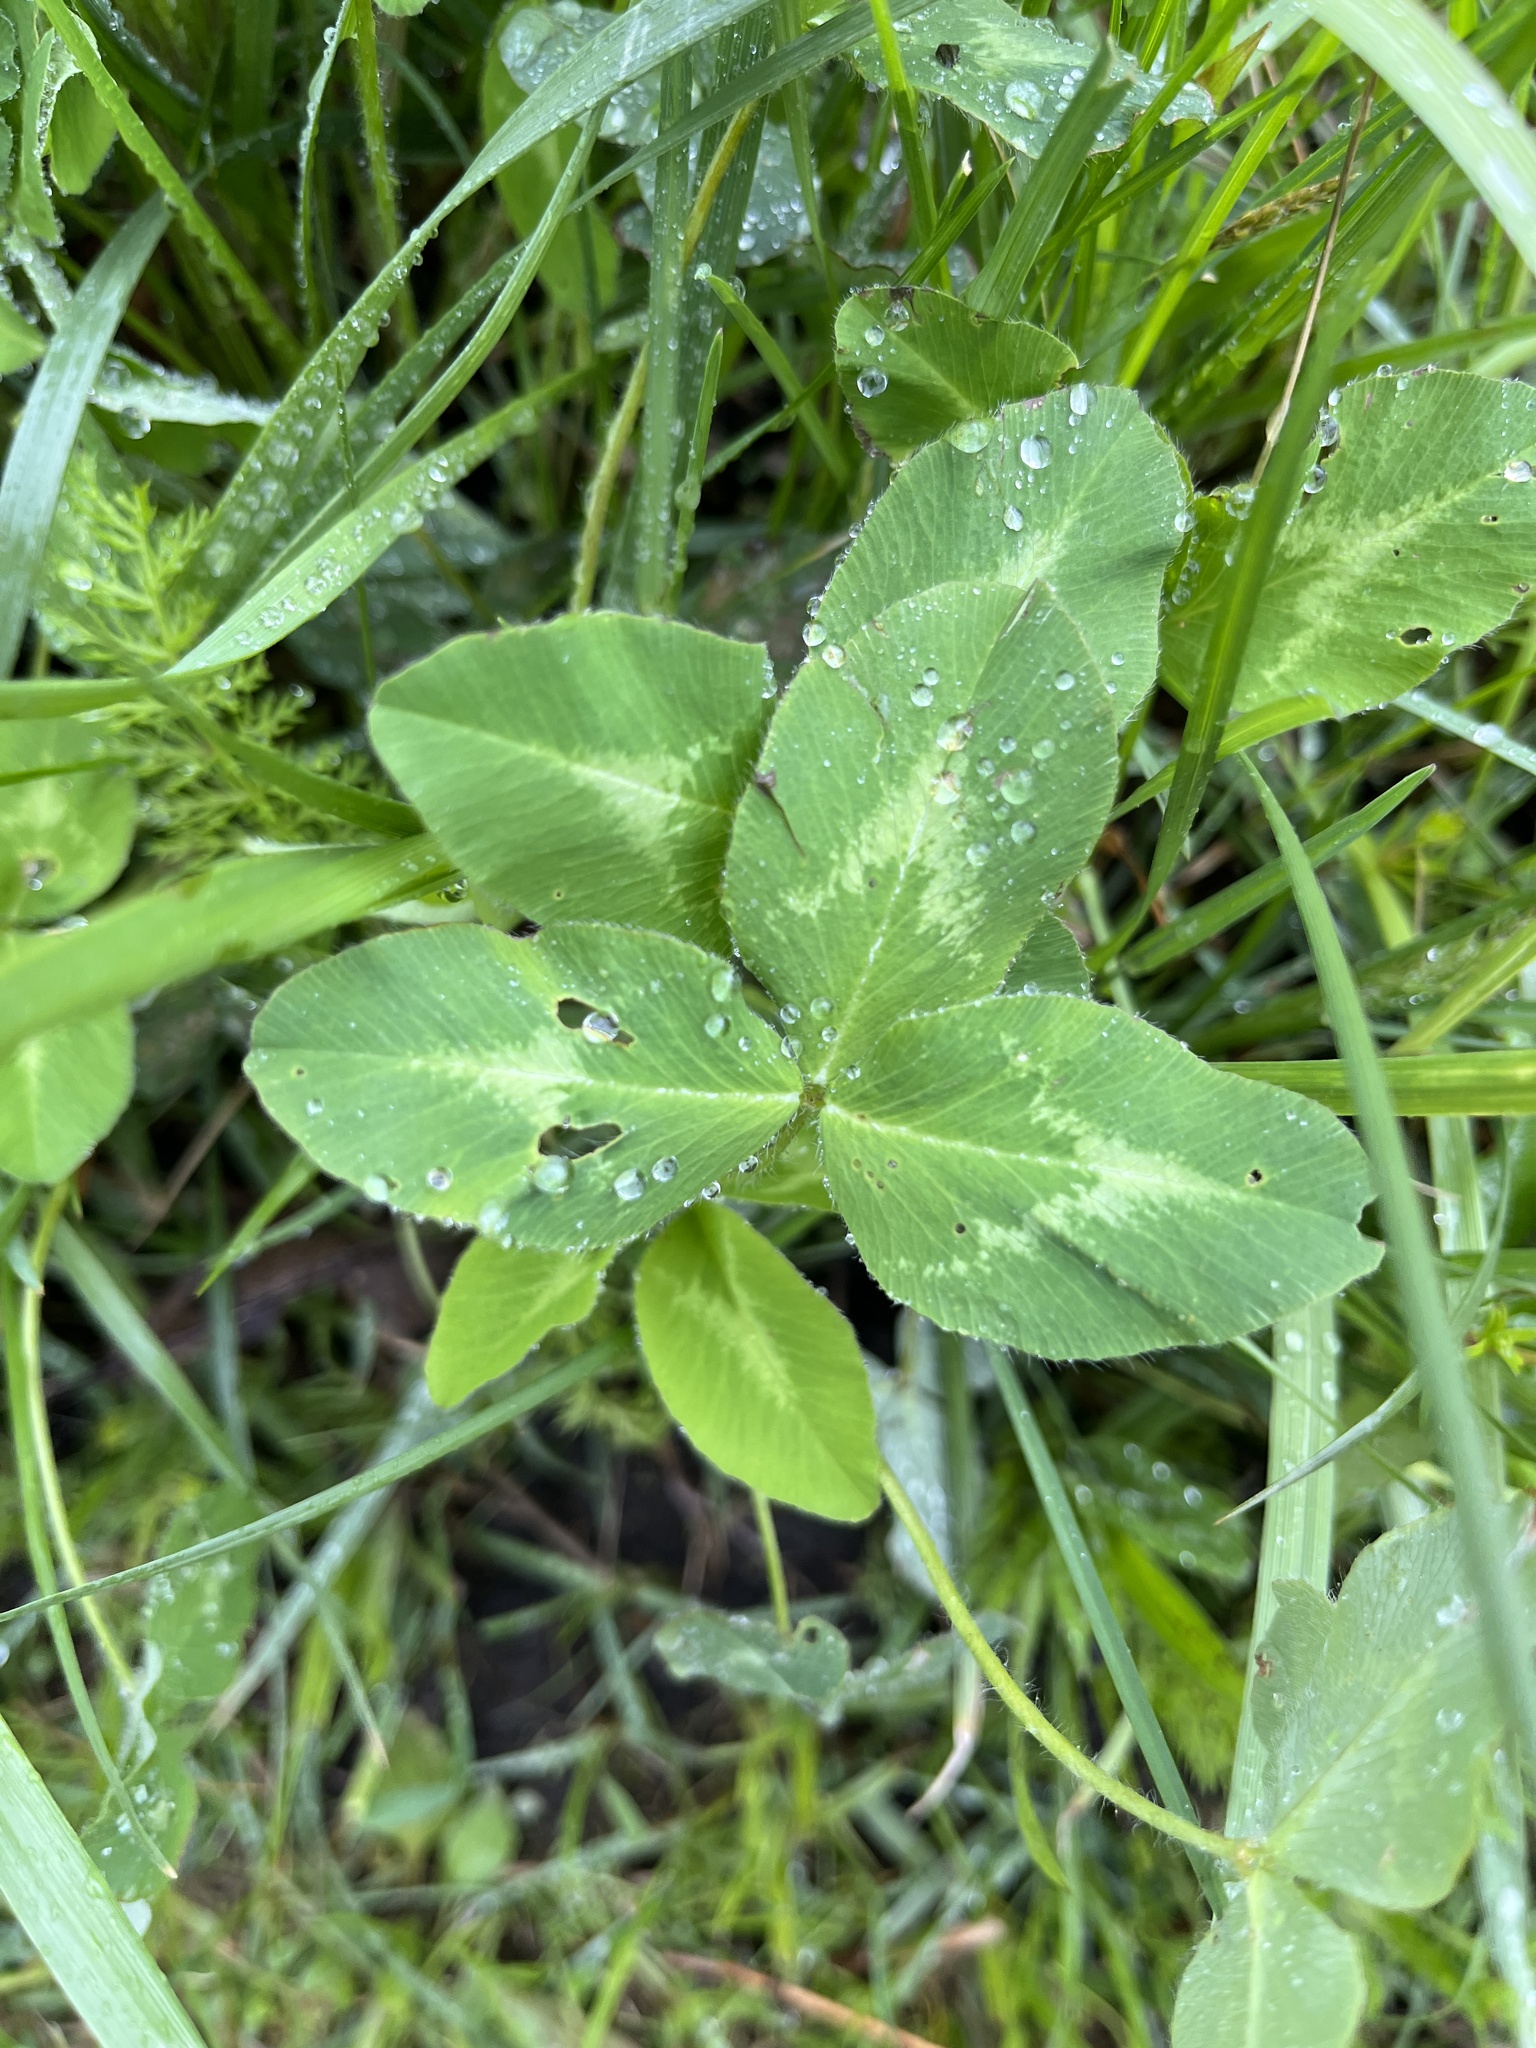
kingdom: Plantae
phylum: Tracheophyta
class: Magnoliopsida
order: Fabales
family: Fabaceae
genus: Trifolium
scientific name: Trifolium pratense
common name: Red clover
